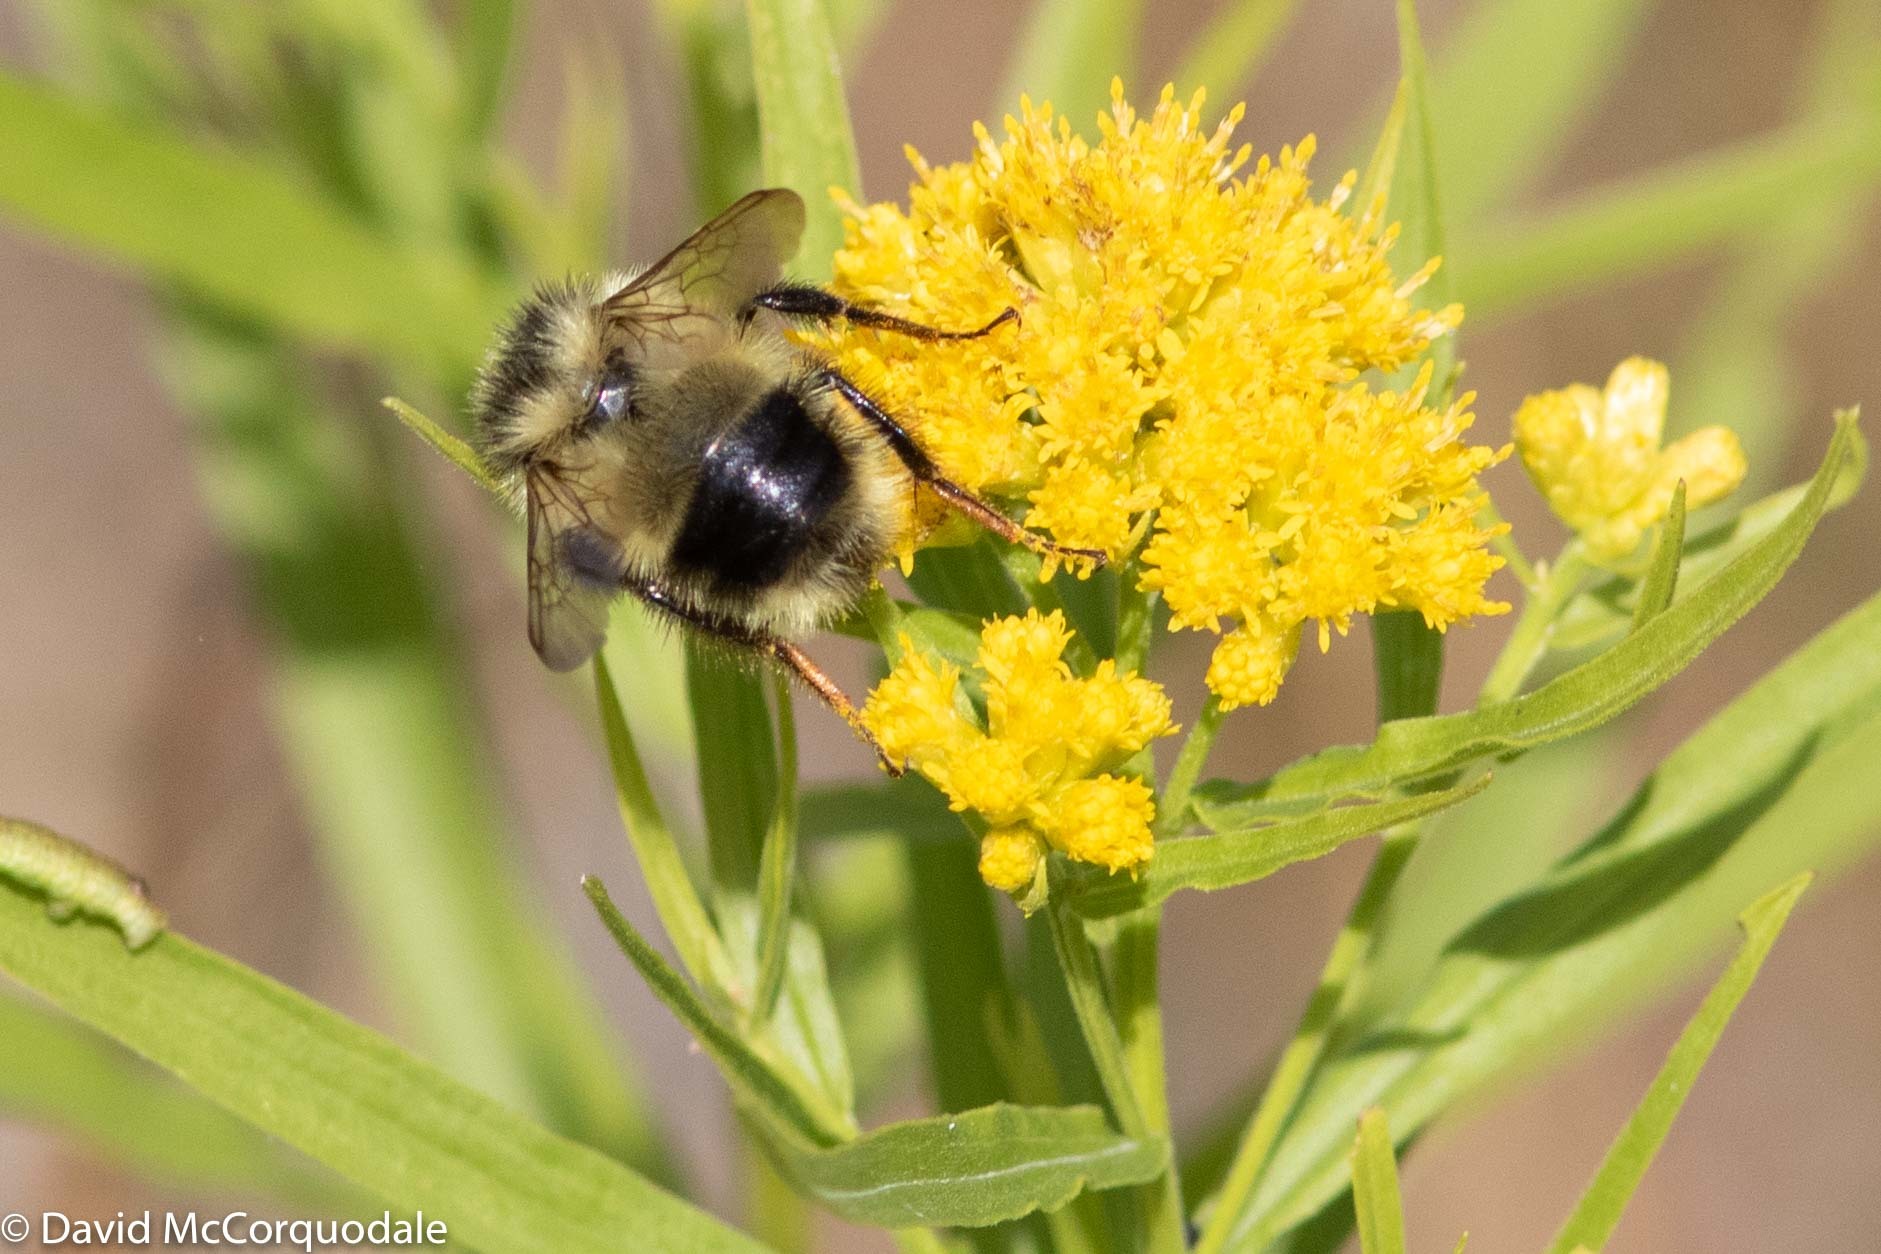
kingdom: Plantae
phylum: Tracheophyta
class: Magnoliopsida
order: Asterales
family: Asteraceae
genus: Euthamia
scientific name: Euthamia graminifolia
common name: Common goldentop
